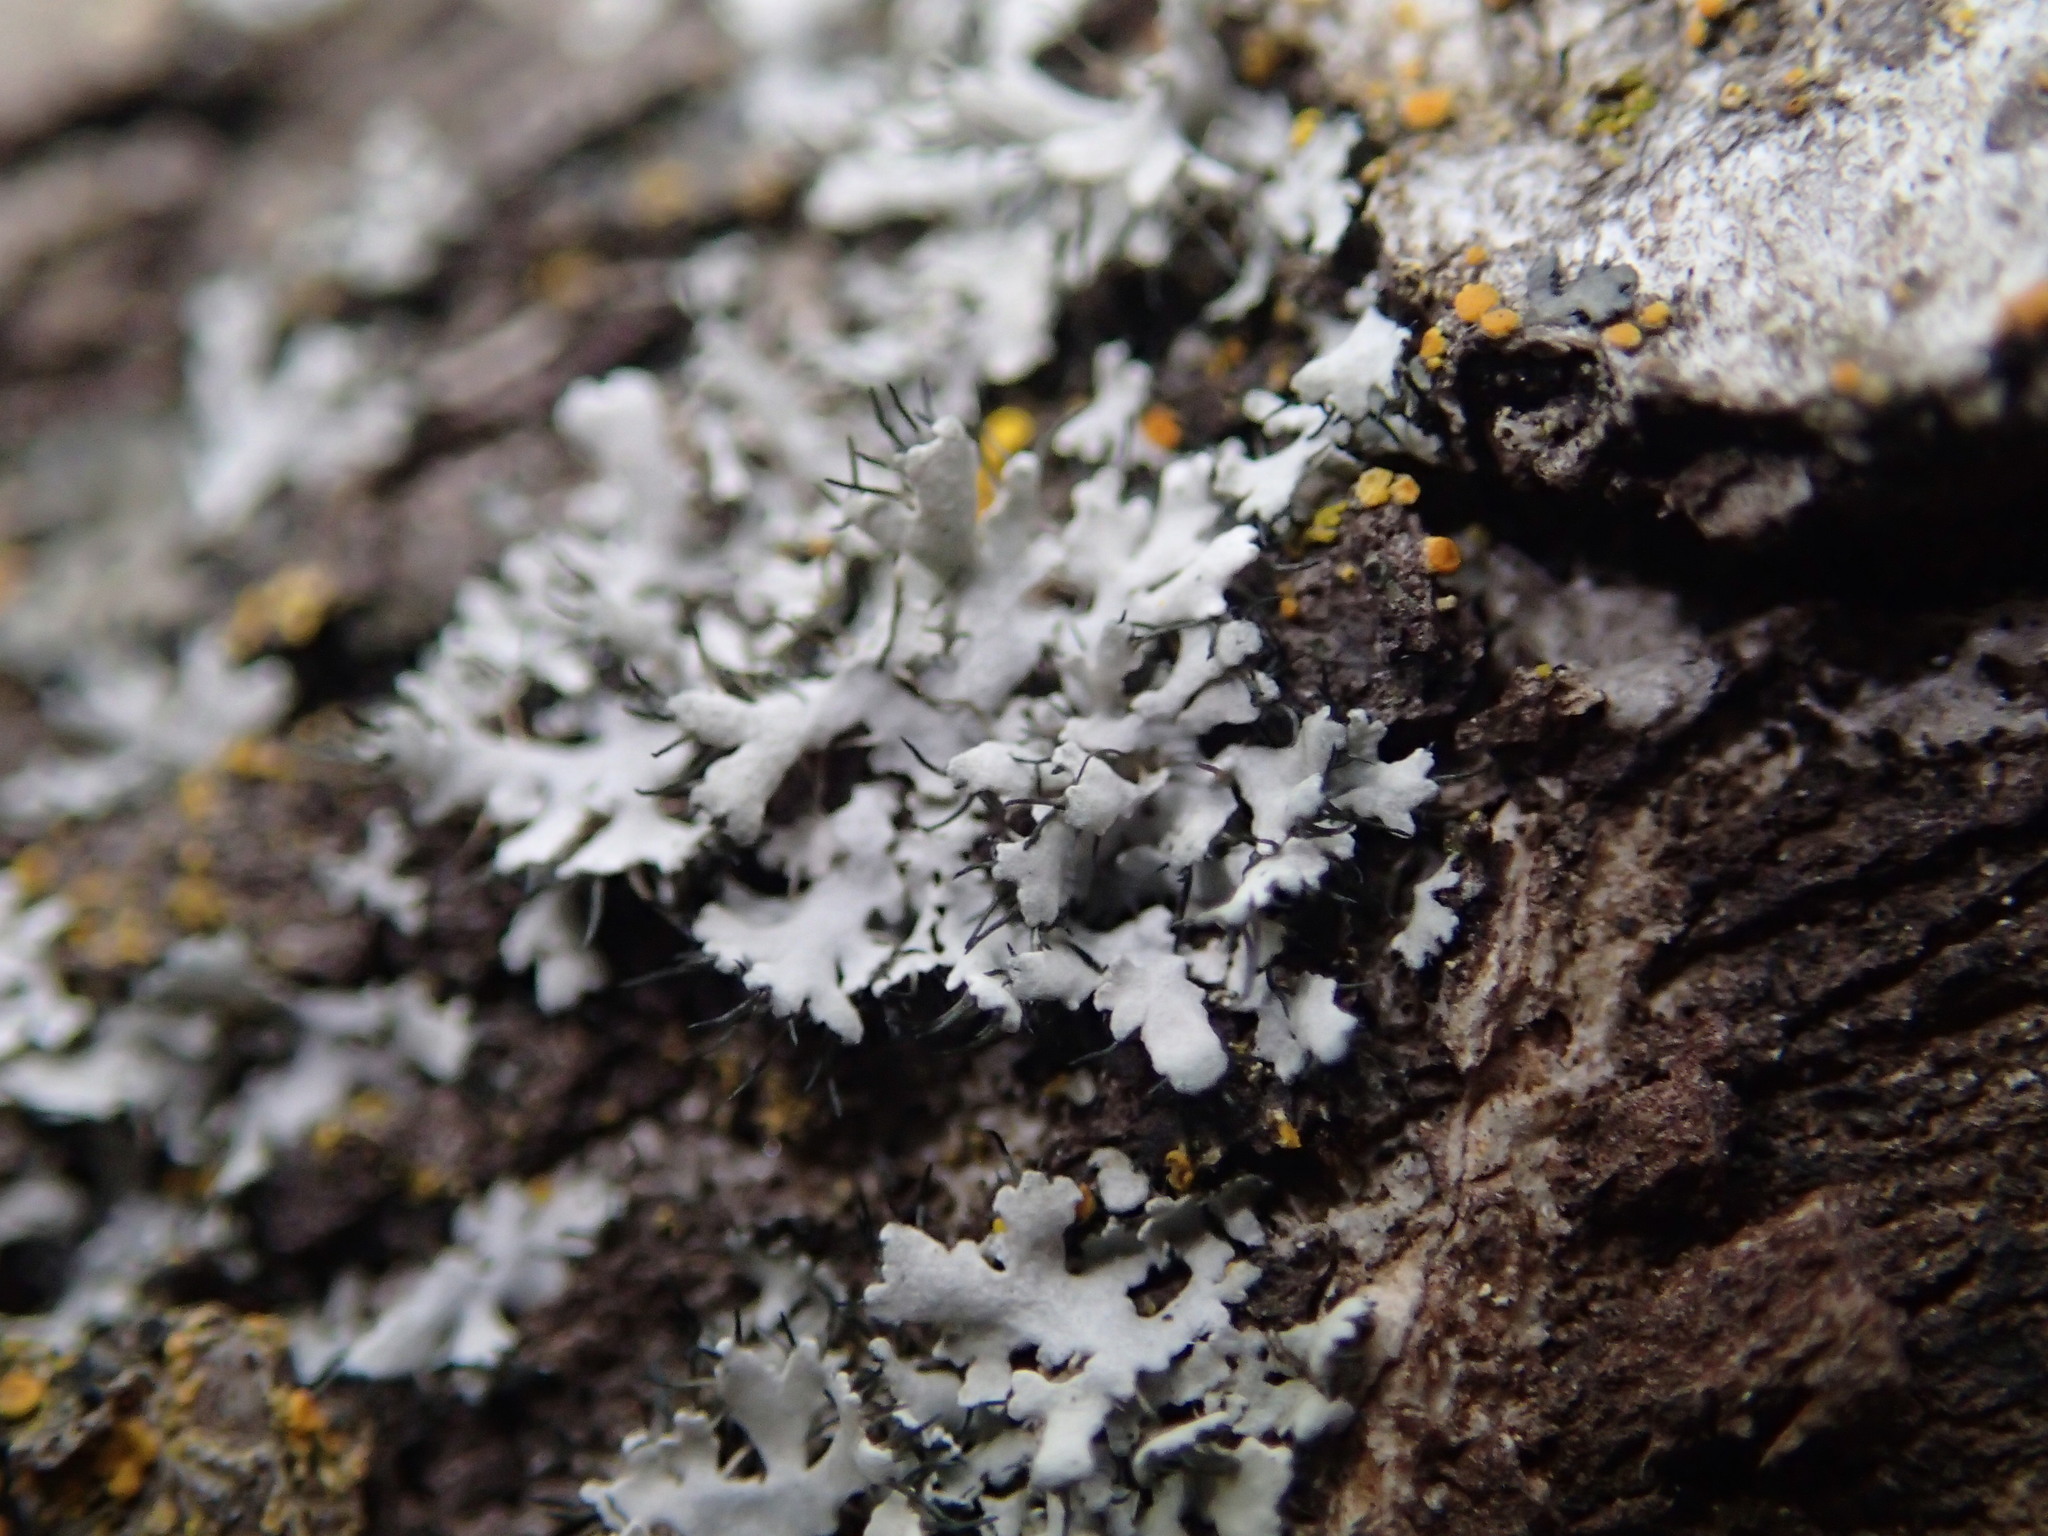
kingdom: Fungi
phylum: Ascomycota
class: Lecanoromycetes
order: Caliciales
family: Physciaceae
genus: Physcia
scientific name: Physcia leptalea
